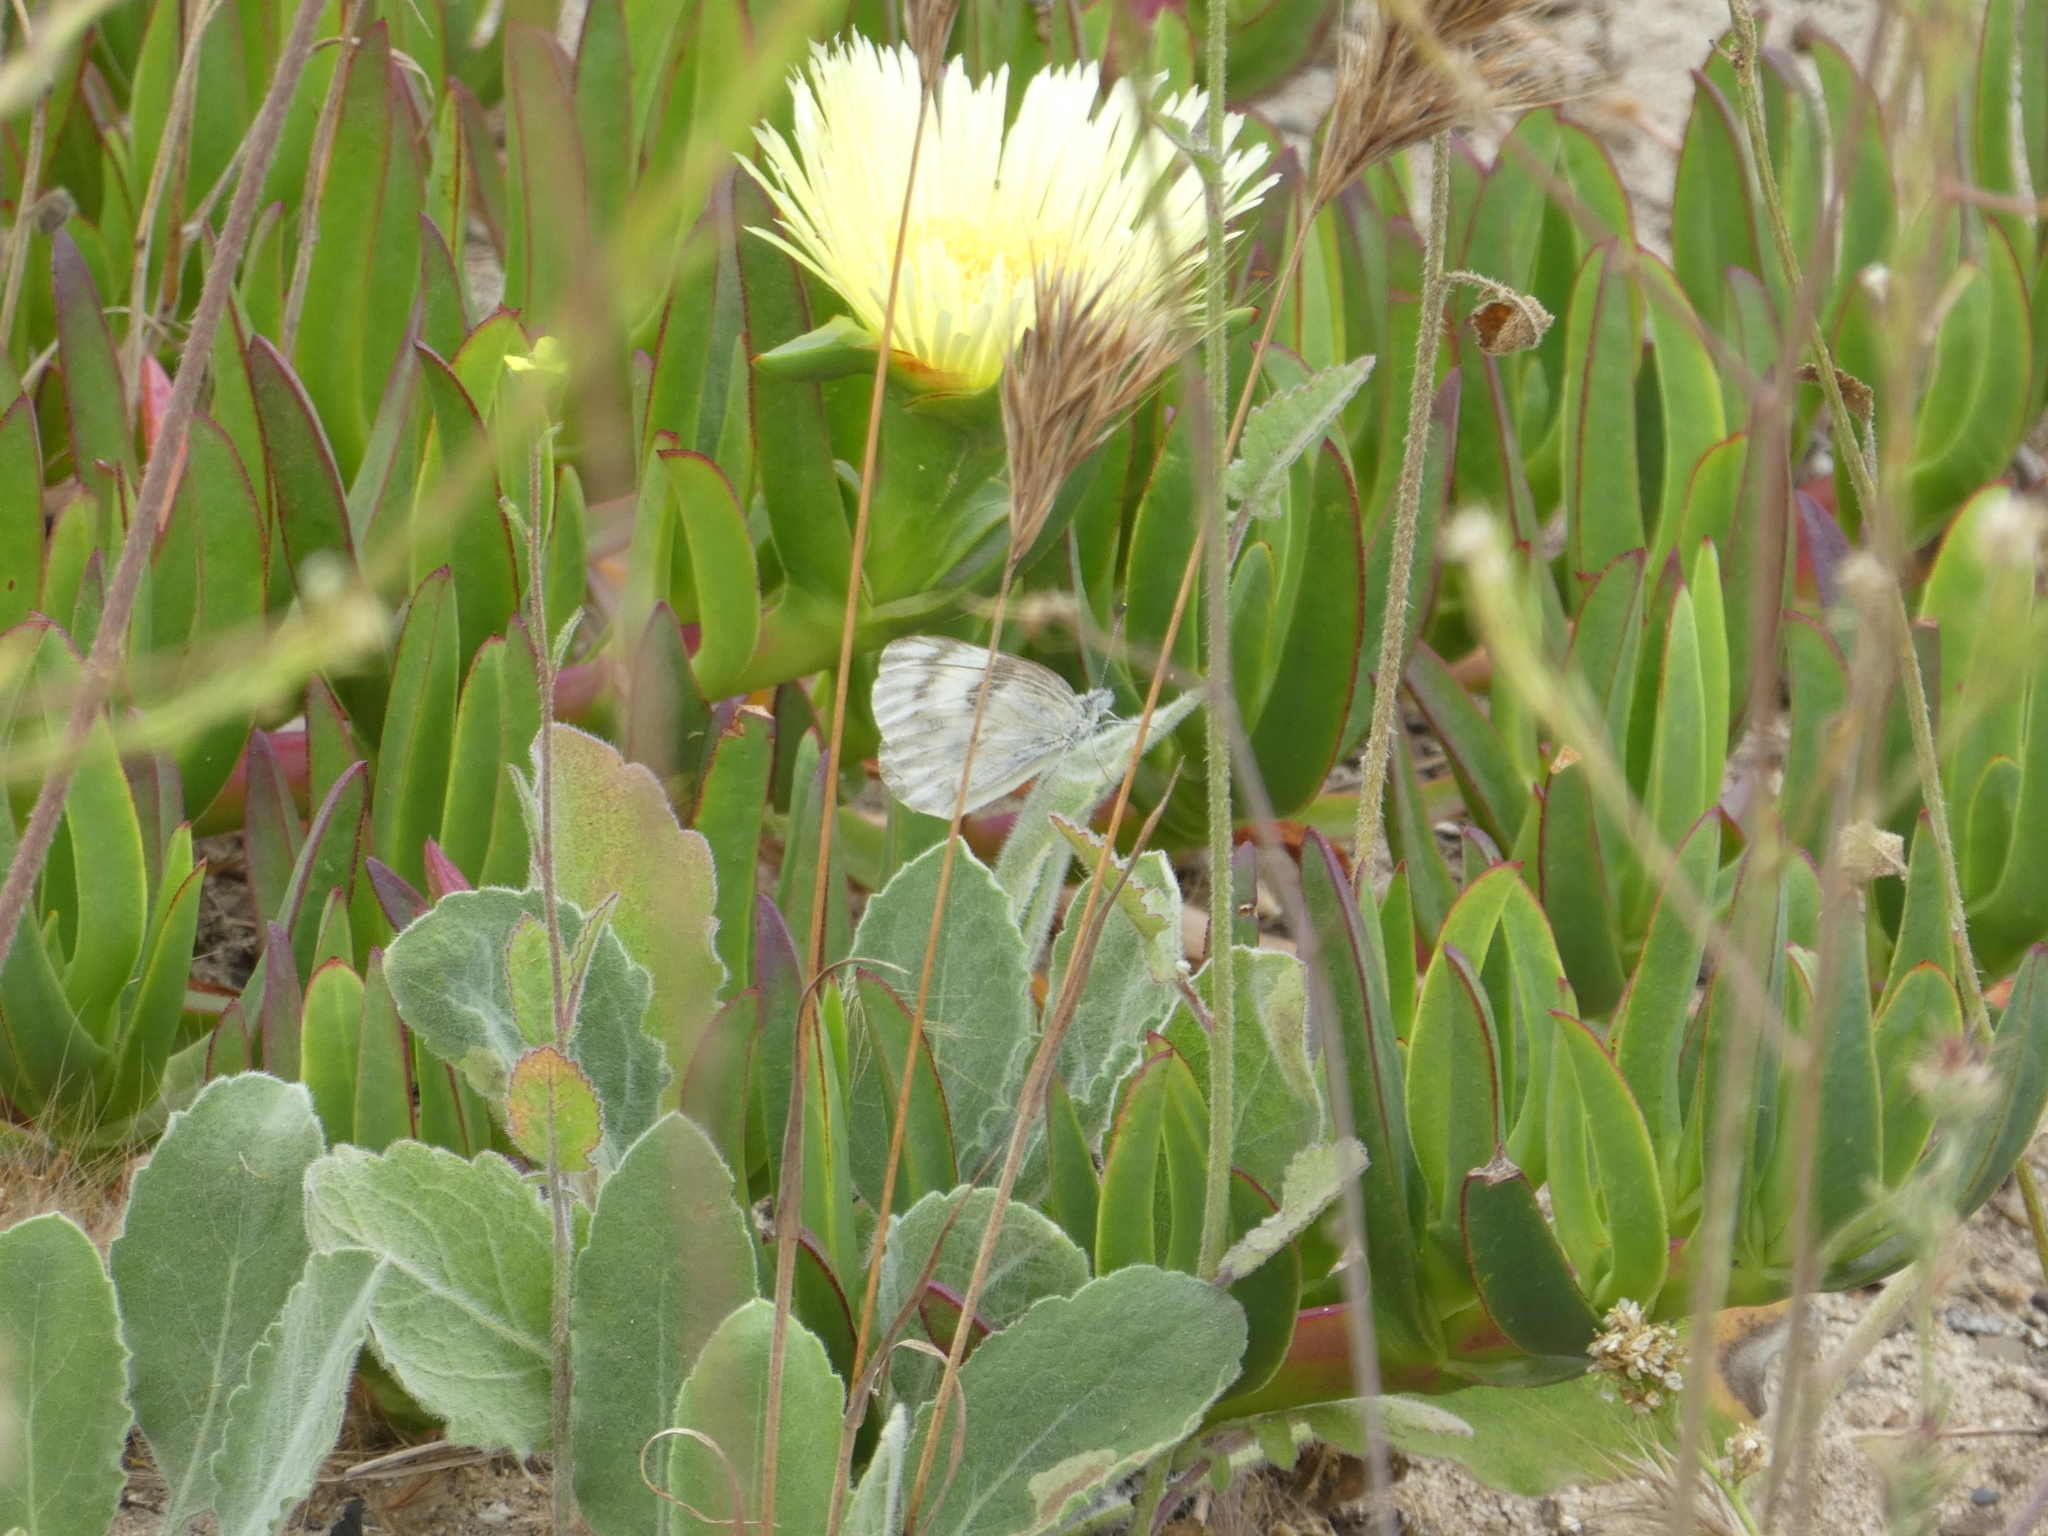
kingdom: Animalia
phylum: Arthropoda
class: Insecta
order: Lepidoptera
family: Pieridae
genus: Pontia
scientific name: Pontia protodice
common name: Checkered white
